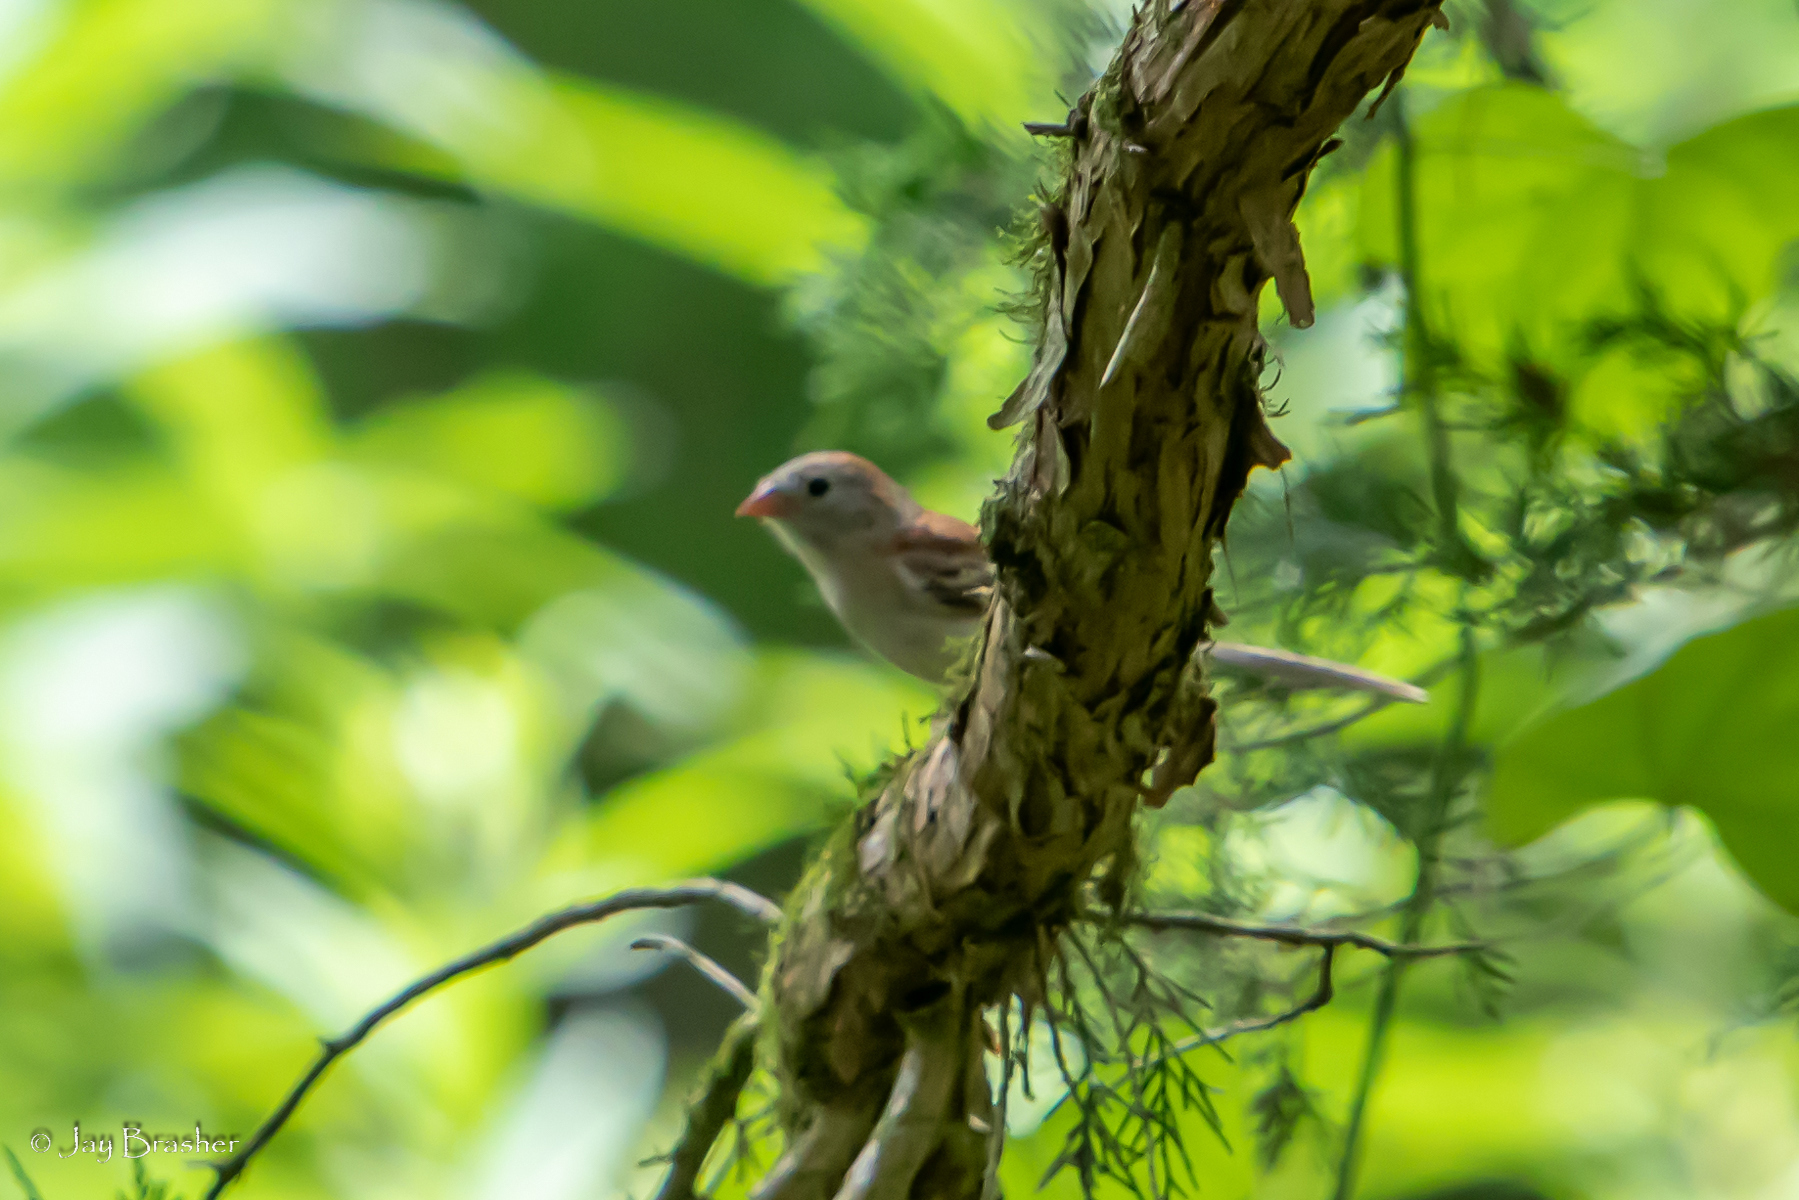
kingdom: Animalia
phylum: Chordata
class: Aves
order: Passeriformes
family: Passerellidae
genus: Spizella
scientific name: Spizella pusilla
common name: Field sparrow
